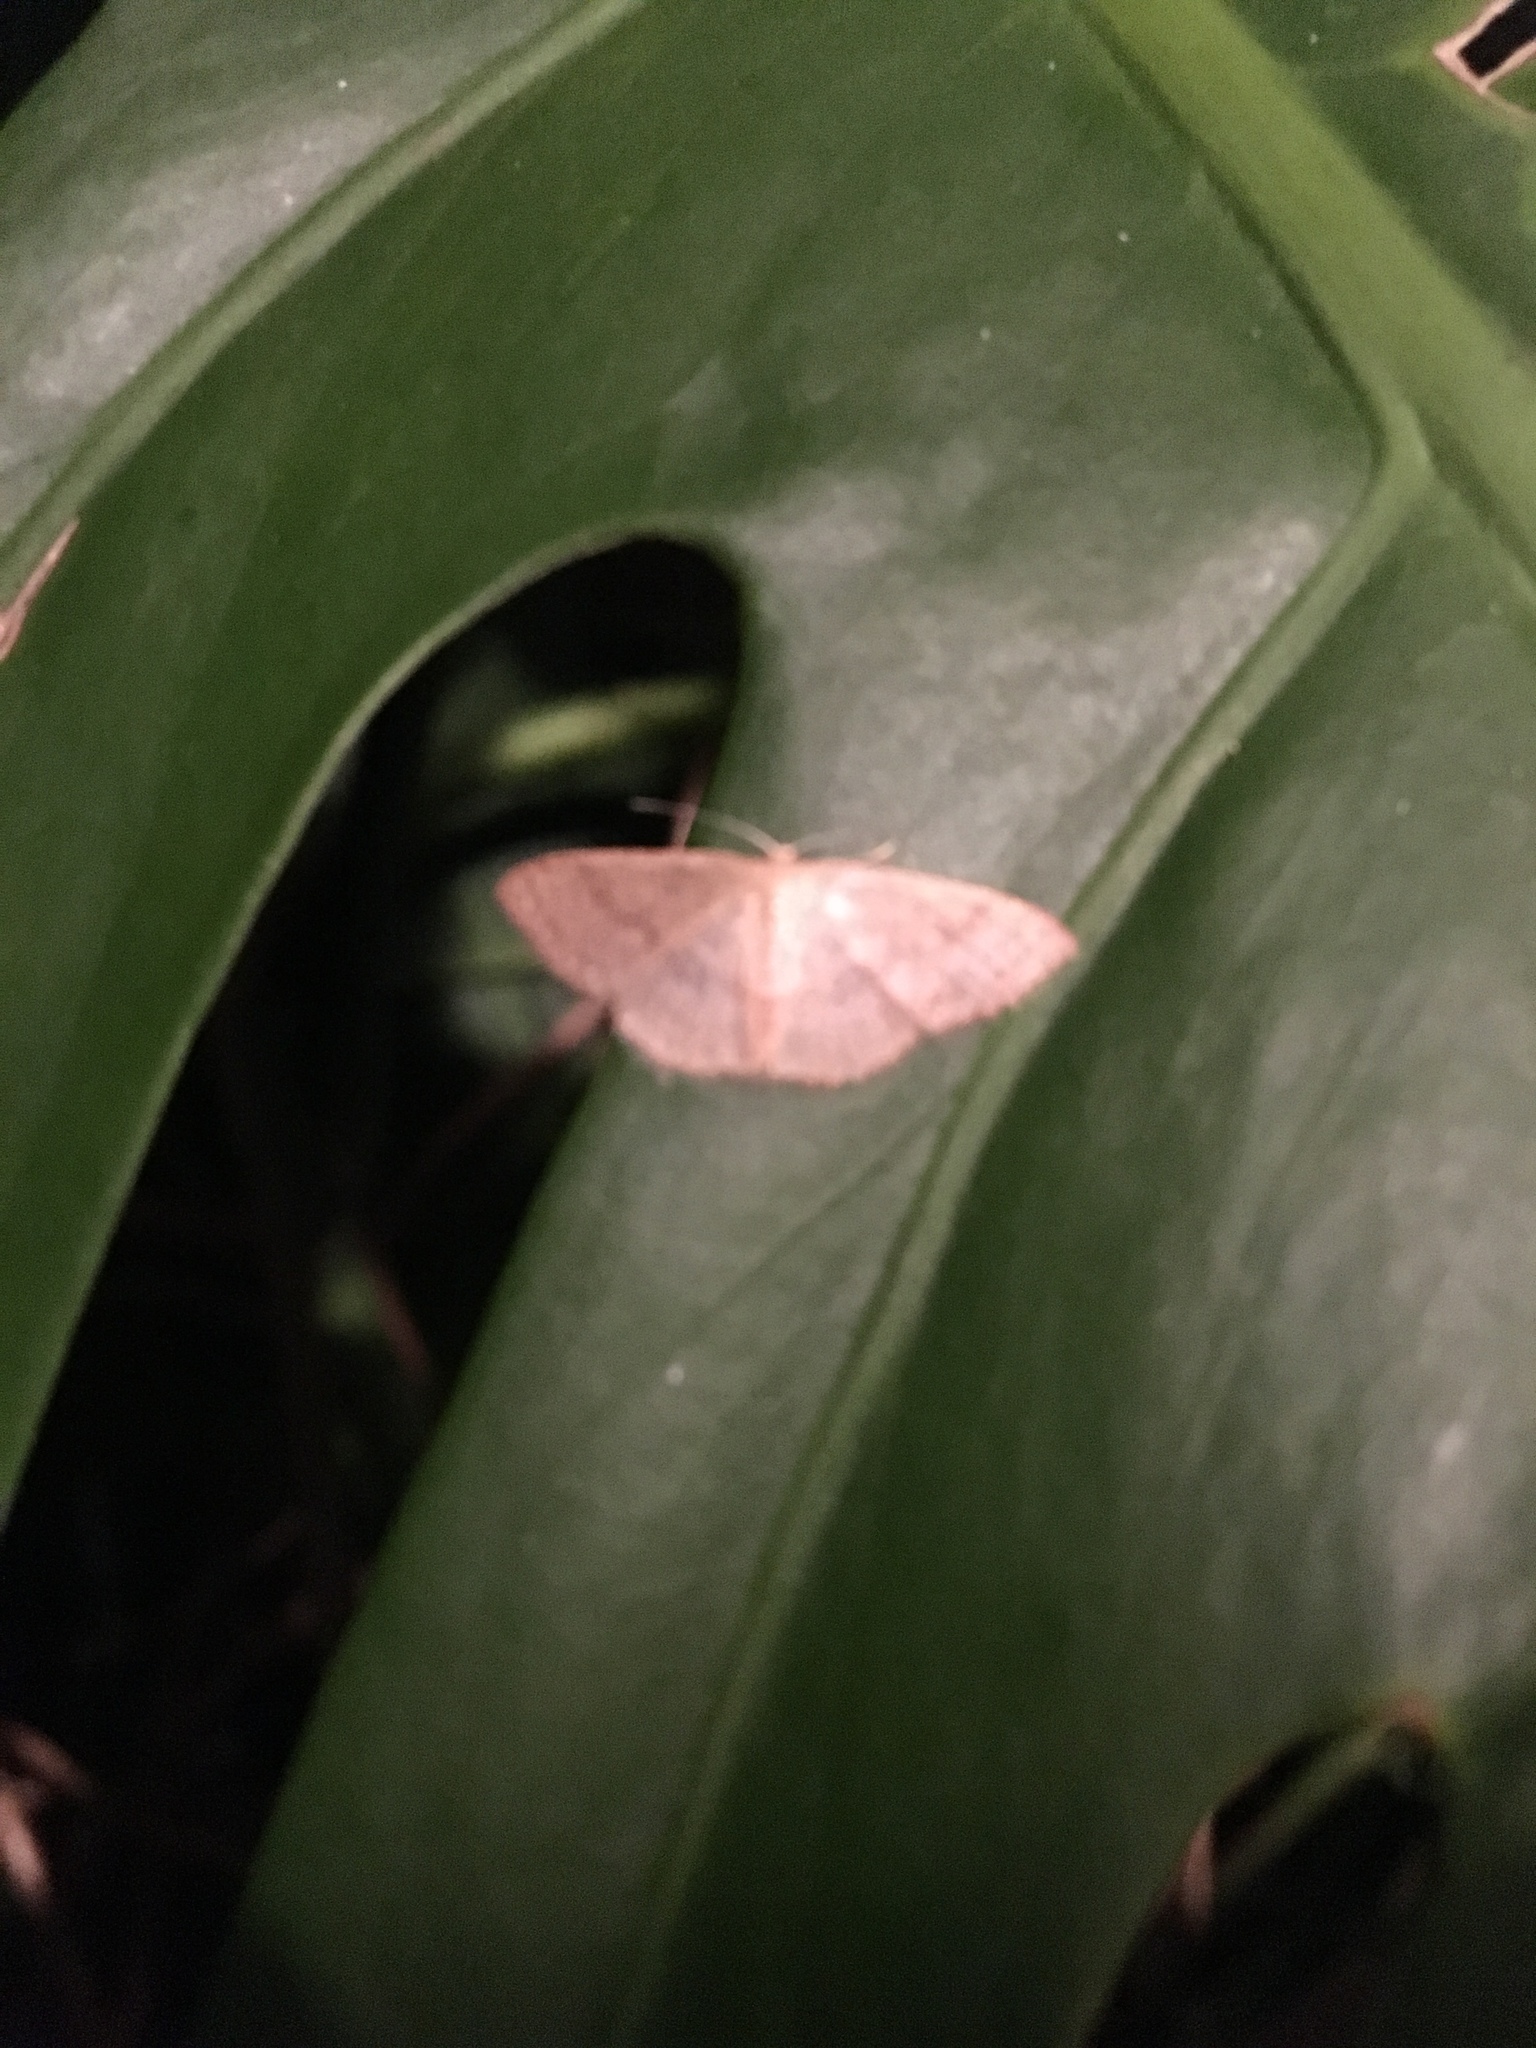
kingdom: Animalia
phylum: Arthropoda
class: Insecta
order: Lepidoptera
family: Geometridae
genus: Pleuroprucha
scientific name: Pleuroprucha insulsaria
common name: Common tan wave
